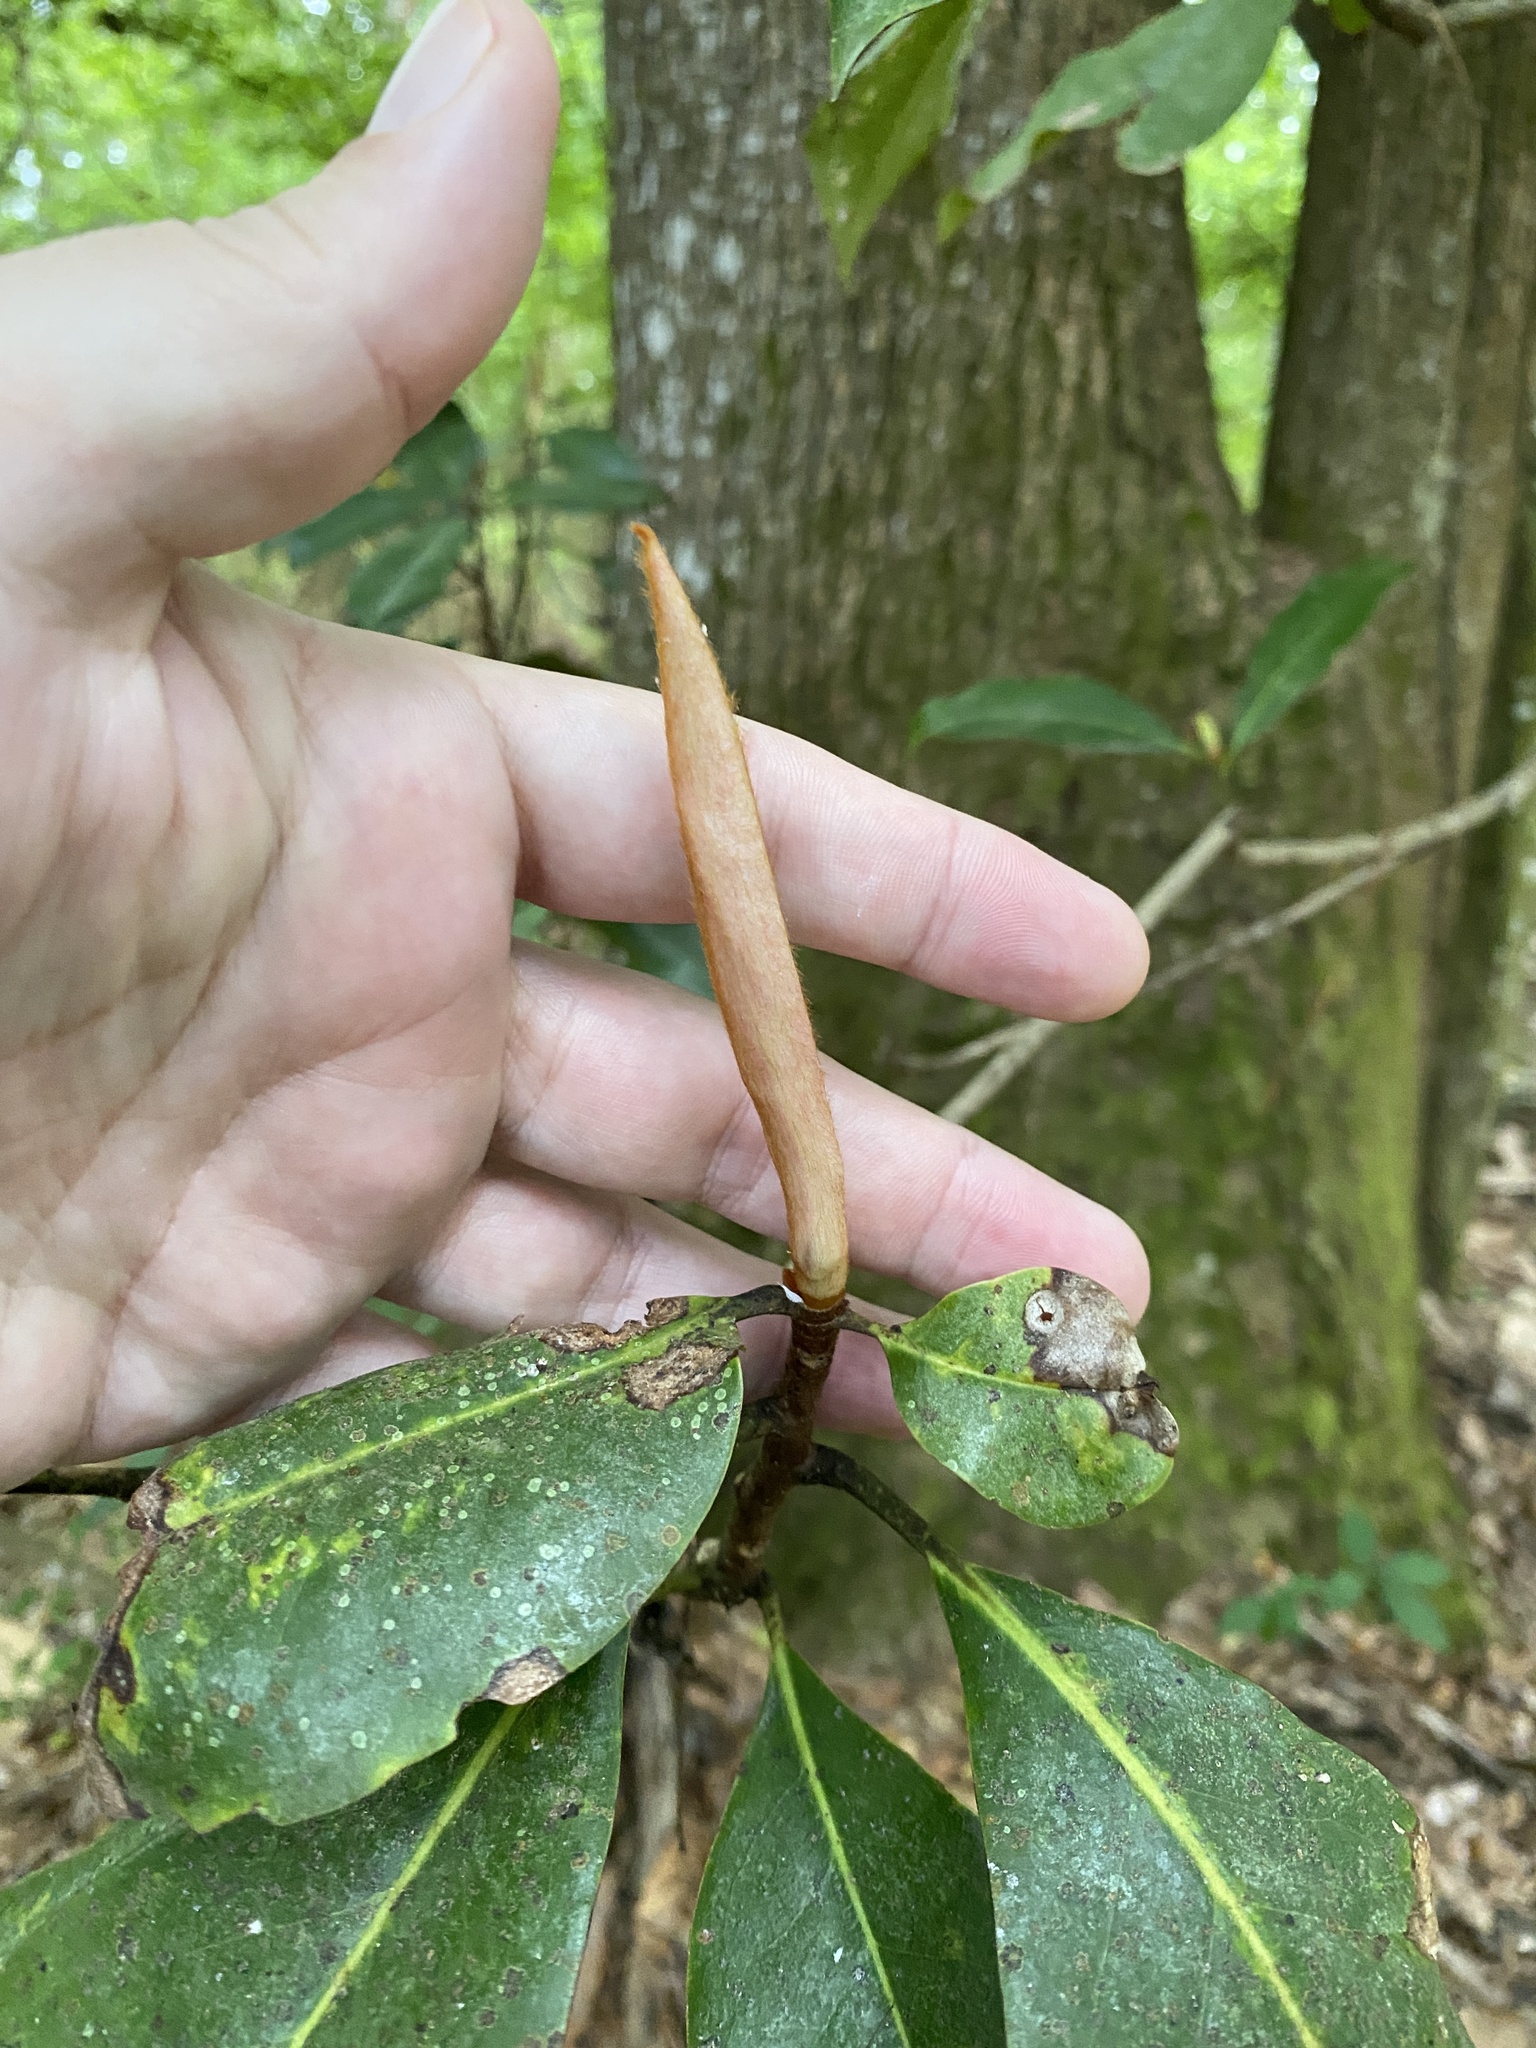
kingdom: Plantae
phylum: Tracheophyta
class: Magnoliopsida
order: Magnoliales
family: Magnoliaceae
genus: Magnolia
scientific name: Magnolia grandiflora
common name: Southern magnolia
